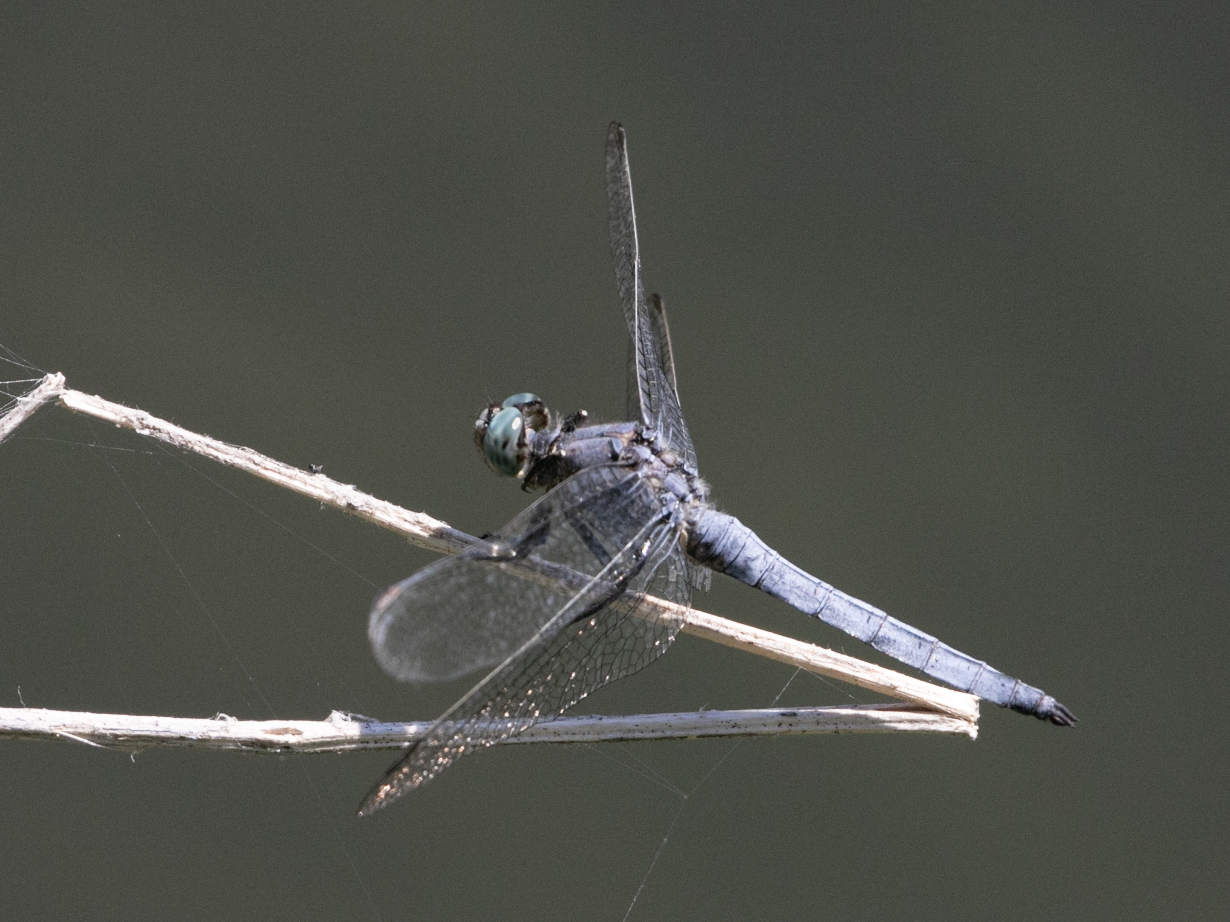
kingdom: Animalia
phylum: Arthropoda
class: Insecta
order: Odonata
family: Libellulidae
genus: Orthetrum
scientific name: Orthetrum coerulescens
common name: Keeled skimmer
